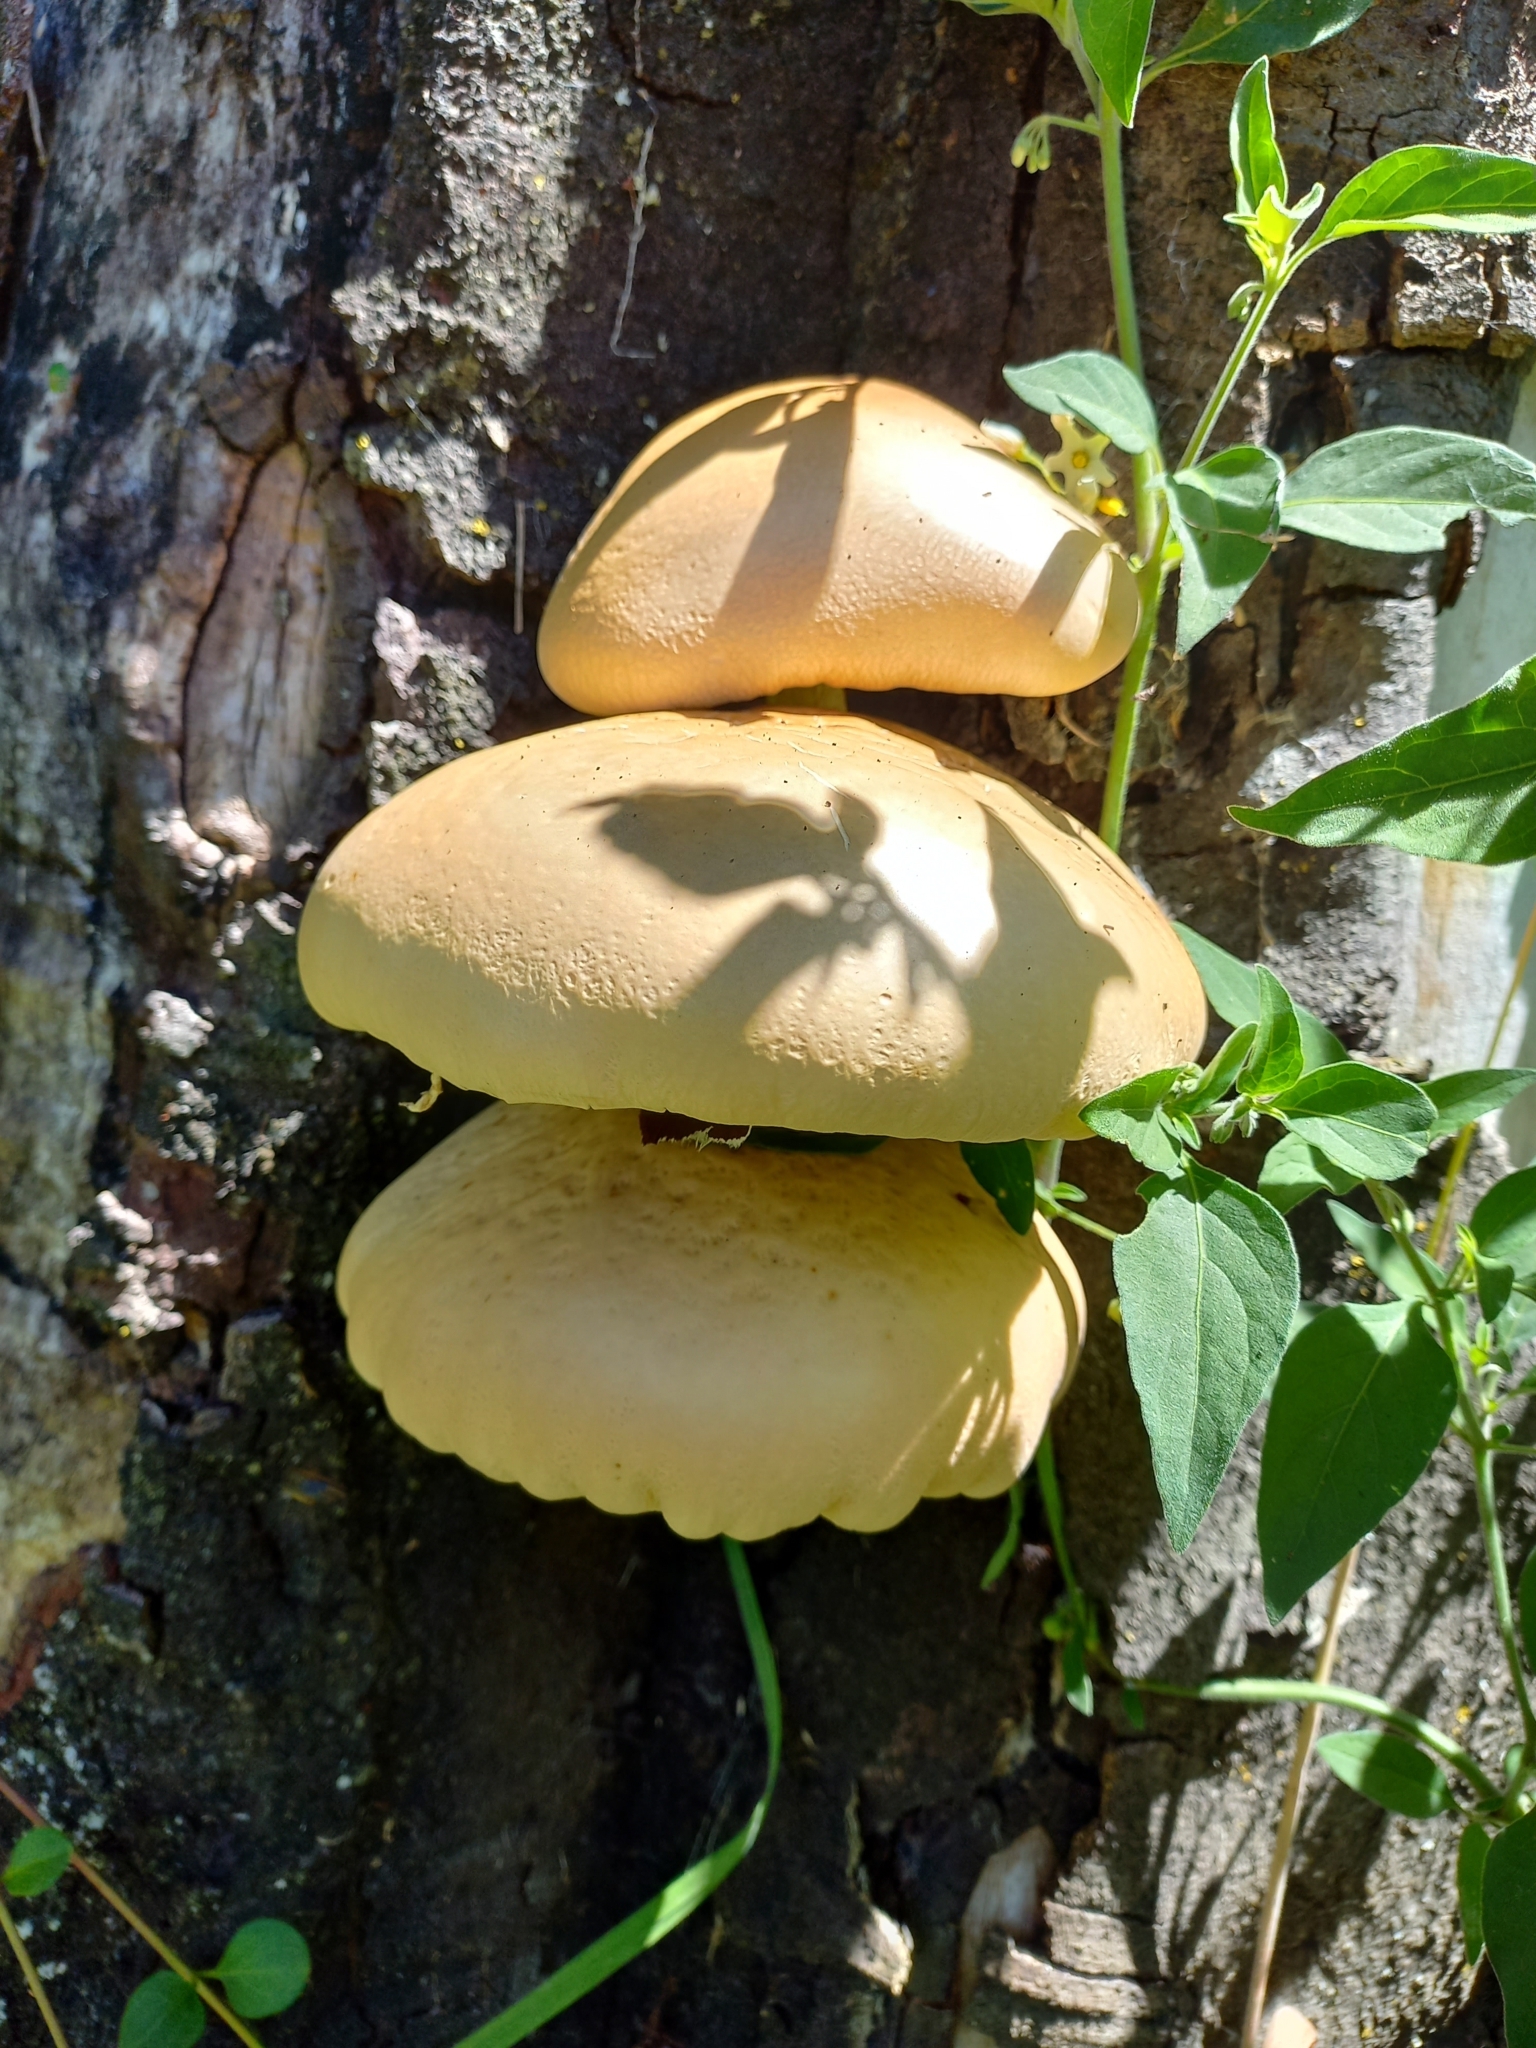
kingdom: Fungi
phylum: Basidiomycota
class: Agaricomycetes
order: Agaricales
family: Tubariaceae
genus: Cyclocybe
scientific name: Cyclocybe parasitica
